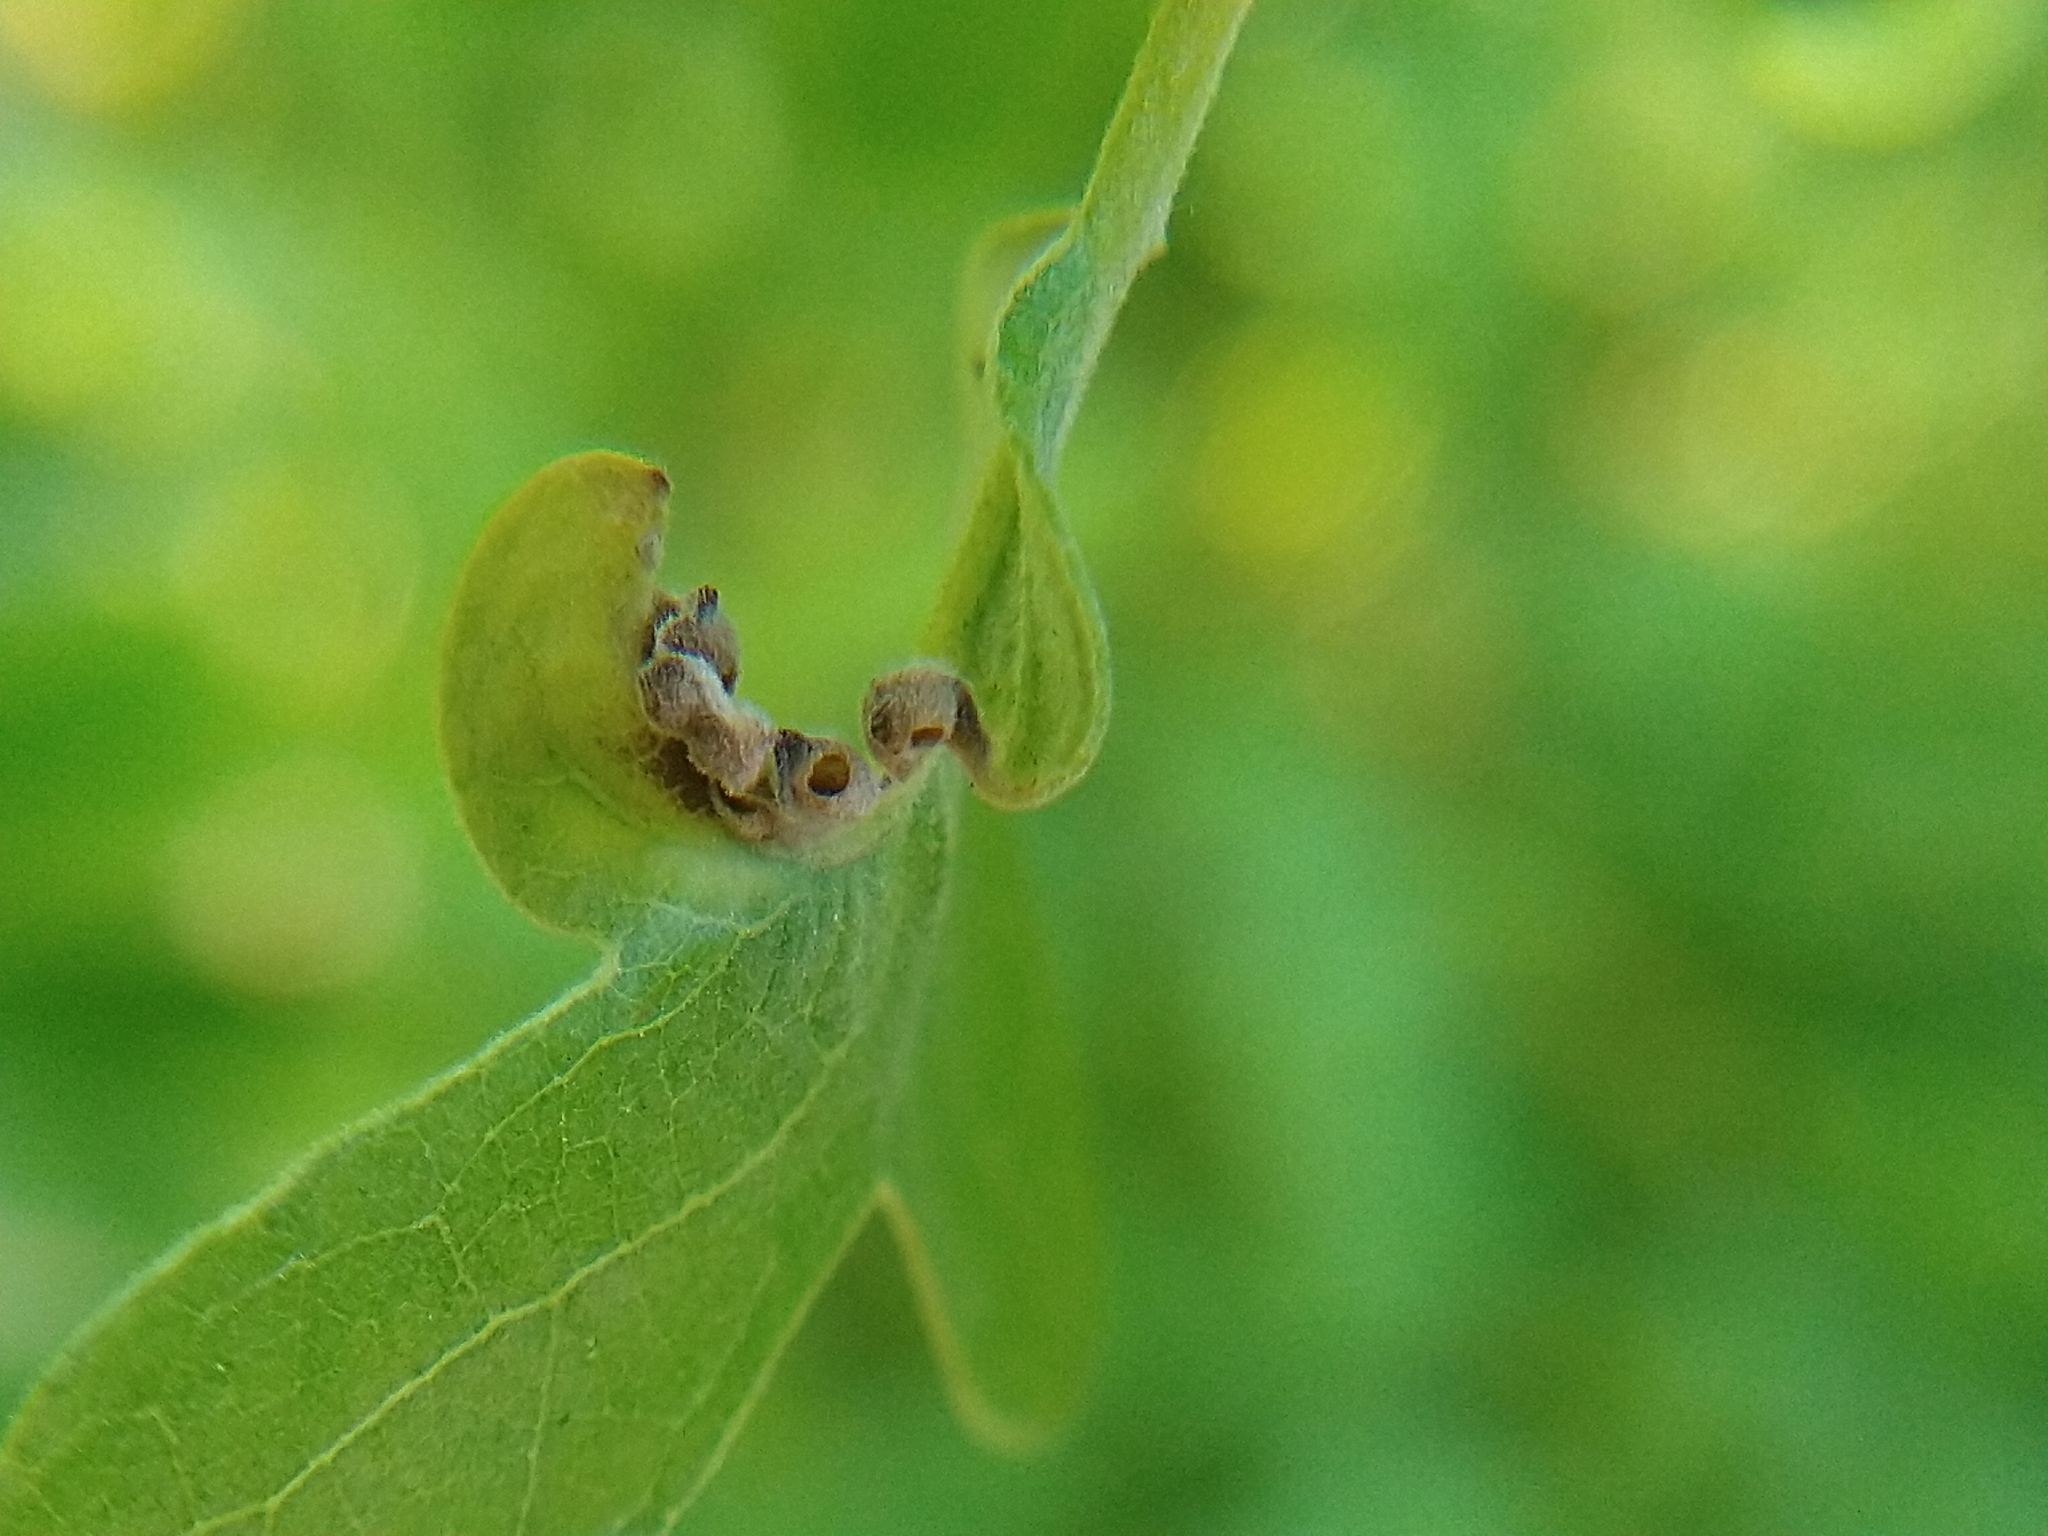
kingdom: Animalia
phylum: Arthropoda
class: Insecta
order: Hymenoptera
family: Cynipidae
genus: Neuroterus
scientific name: Neuroterus saltarius
